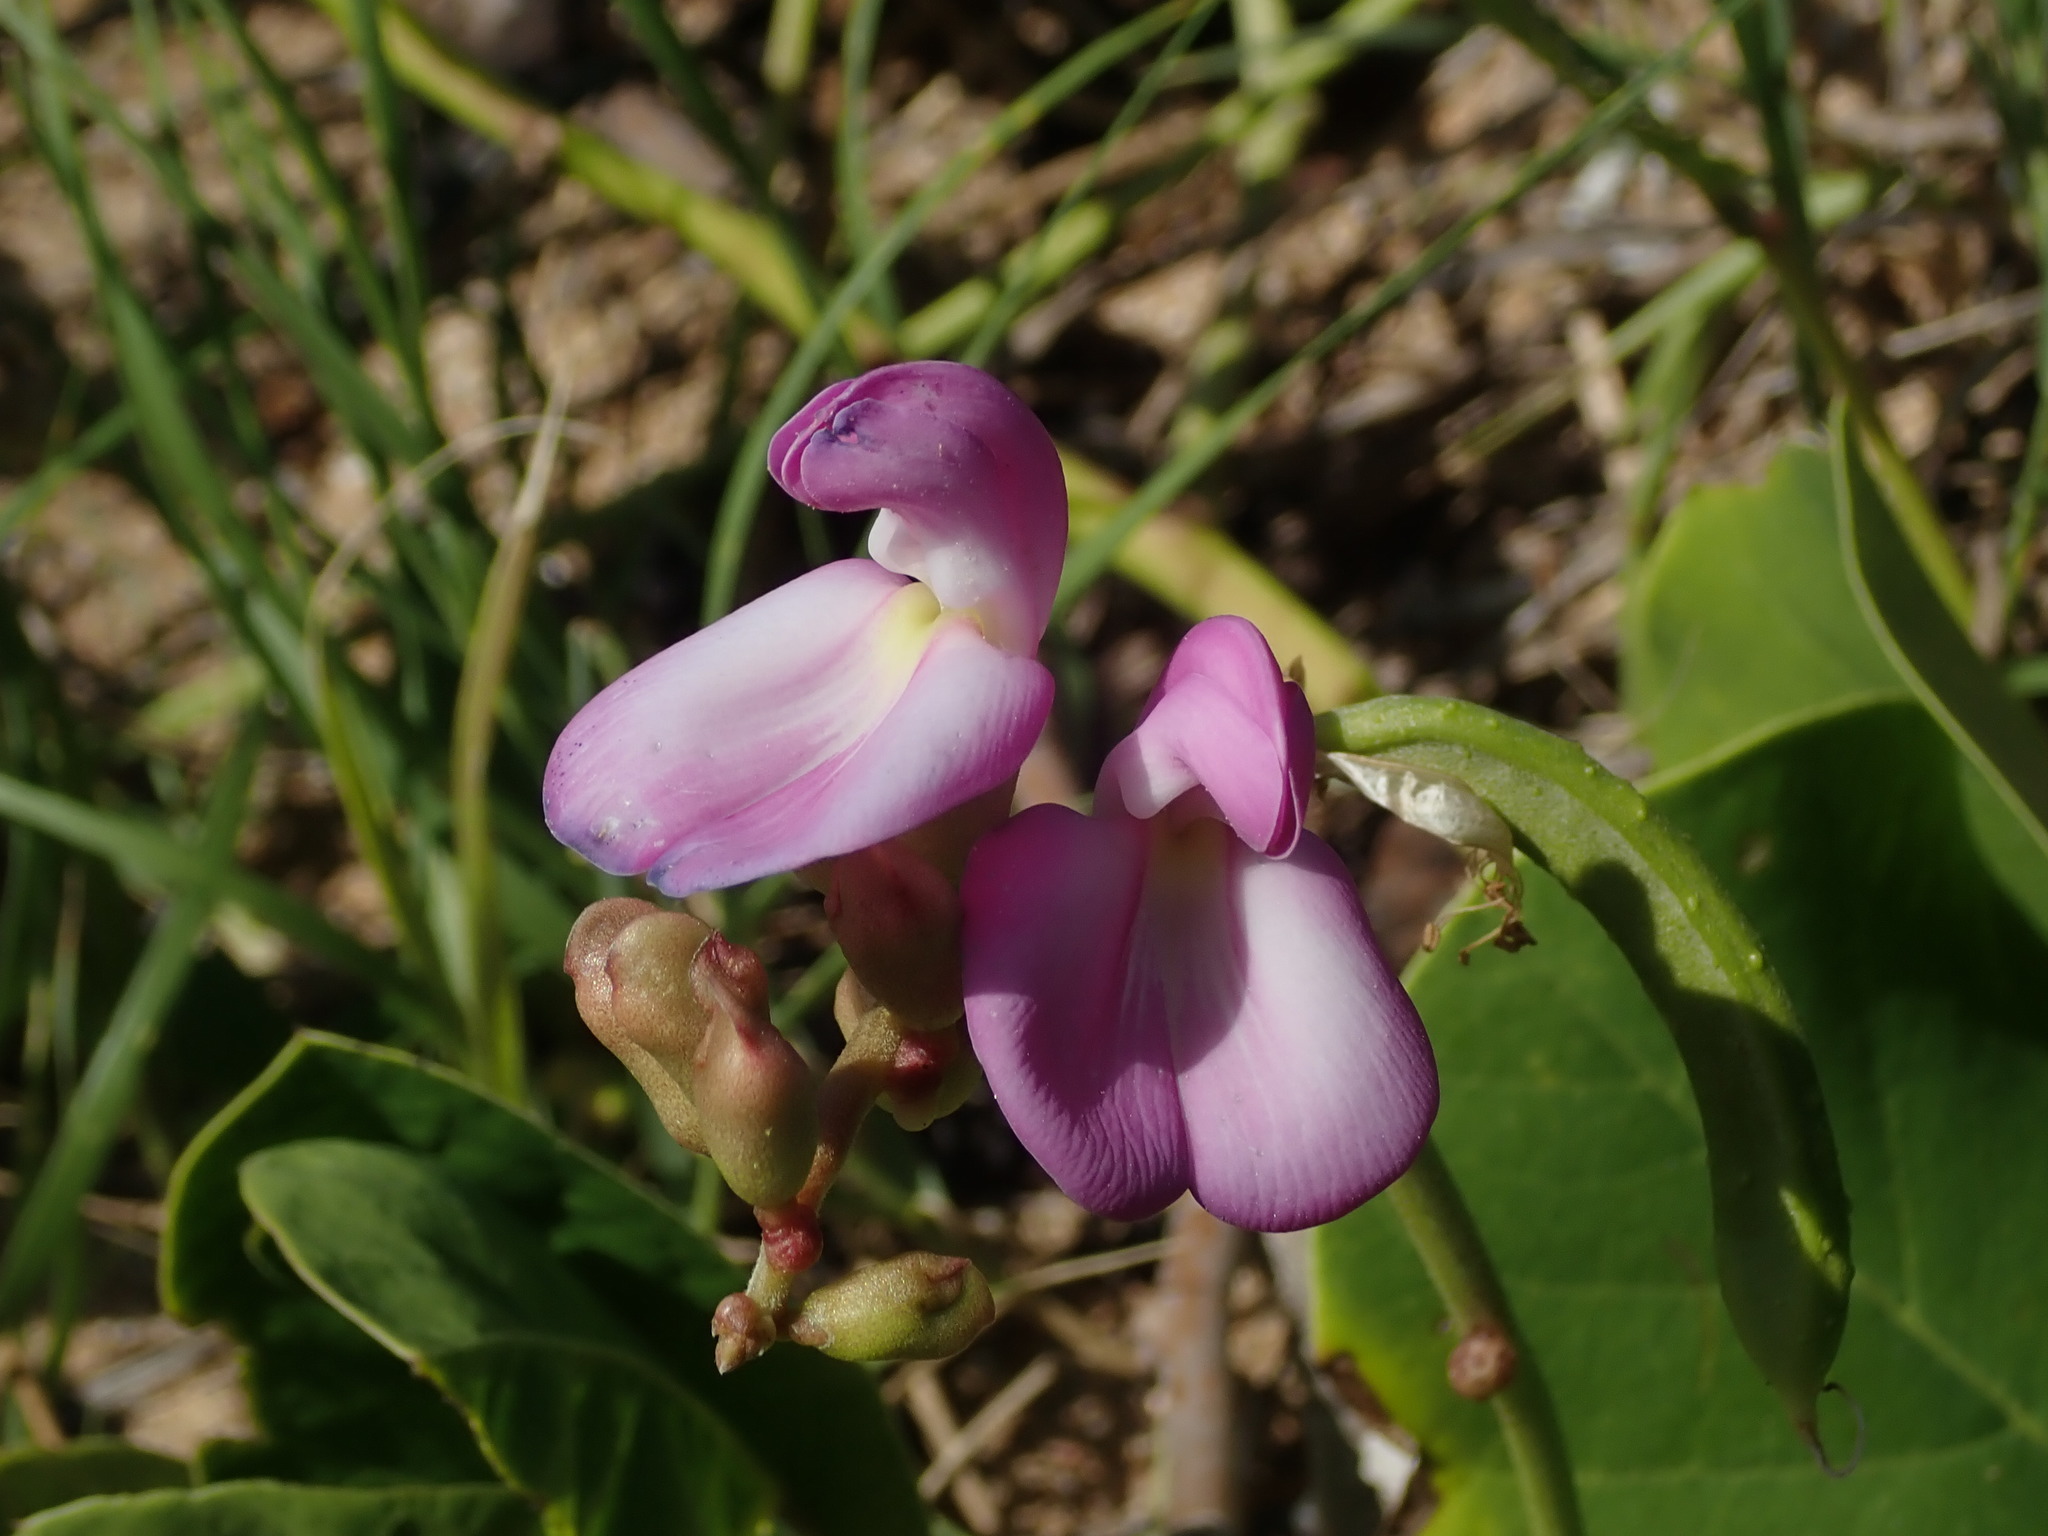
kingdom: Plantae
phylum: Tracheophyta
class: Magnoliopsida
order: Fabales
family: Fabaceae
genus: Canavalia
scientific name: Canavalia rosea
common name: Beach-bean
